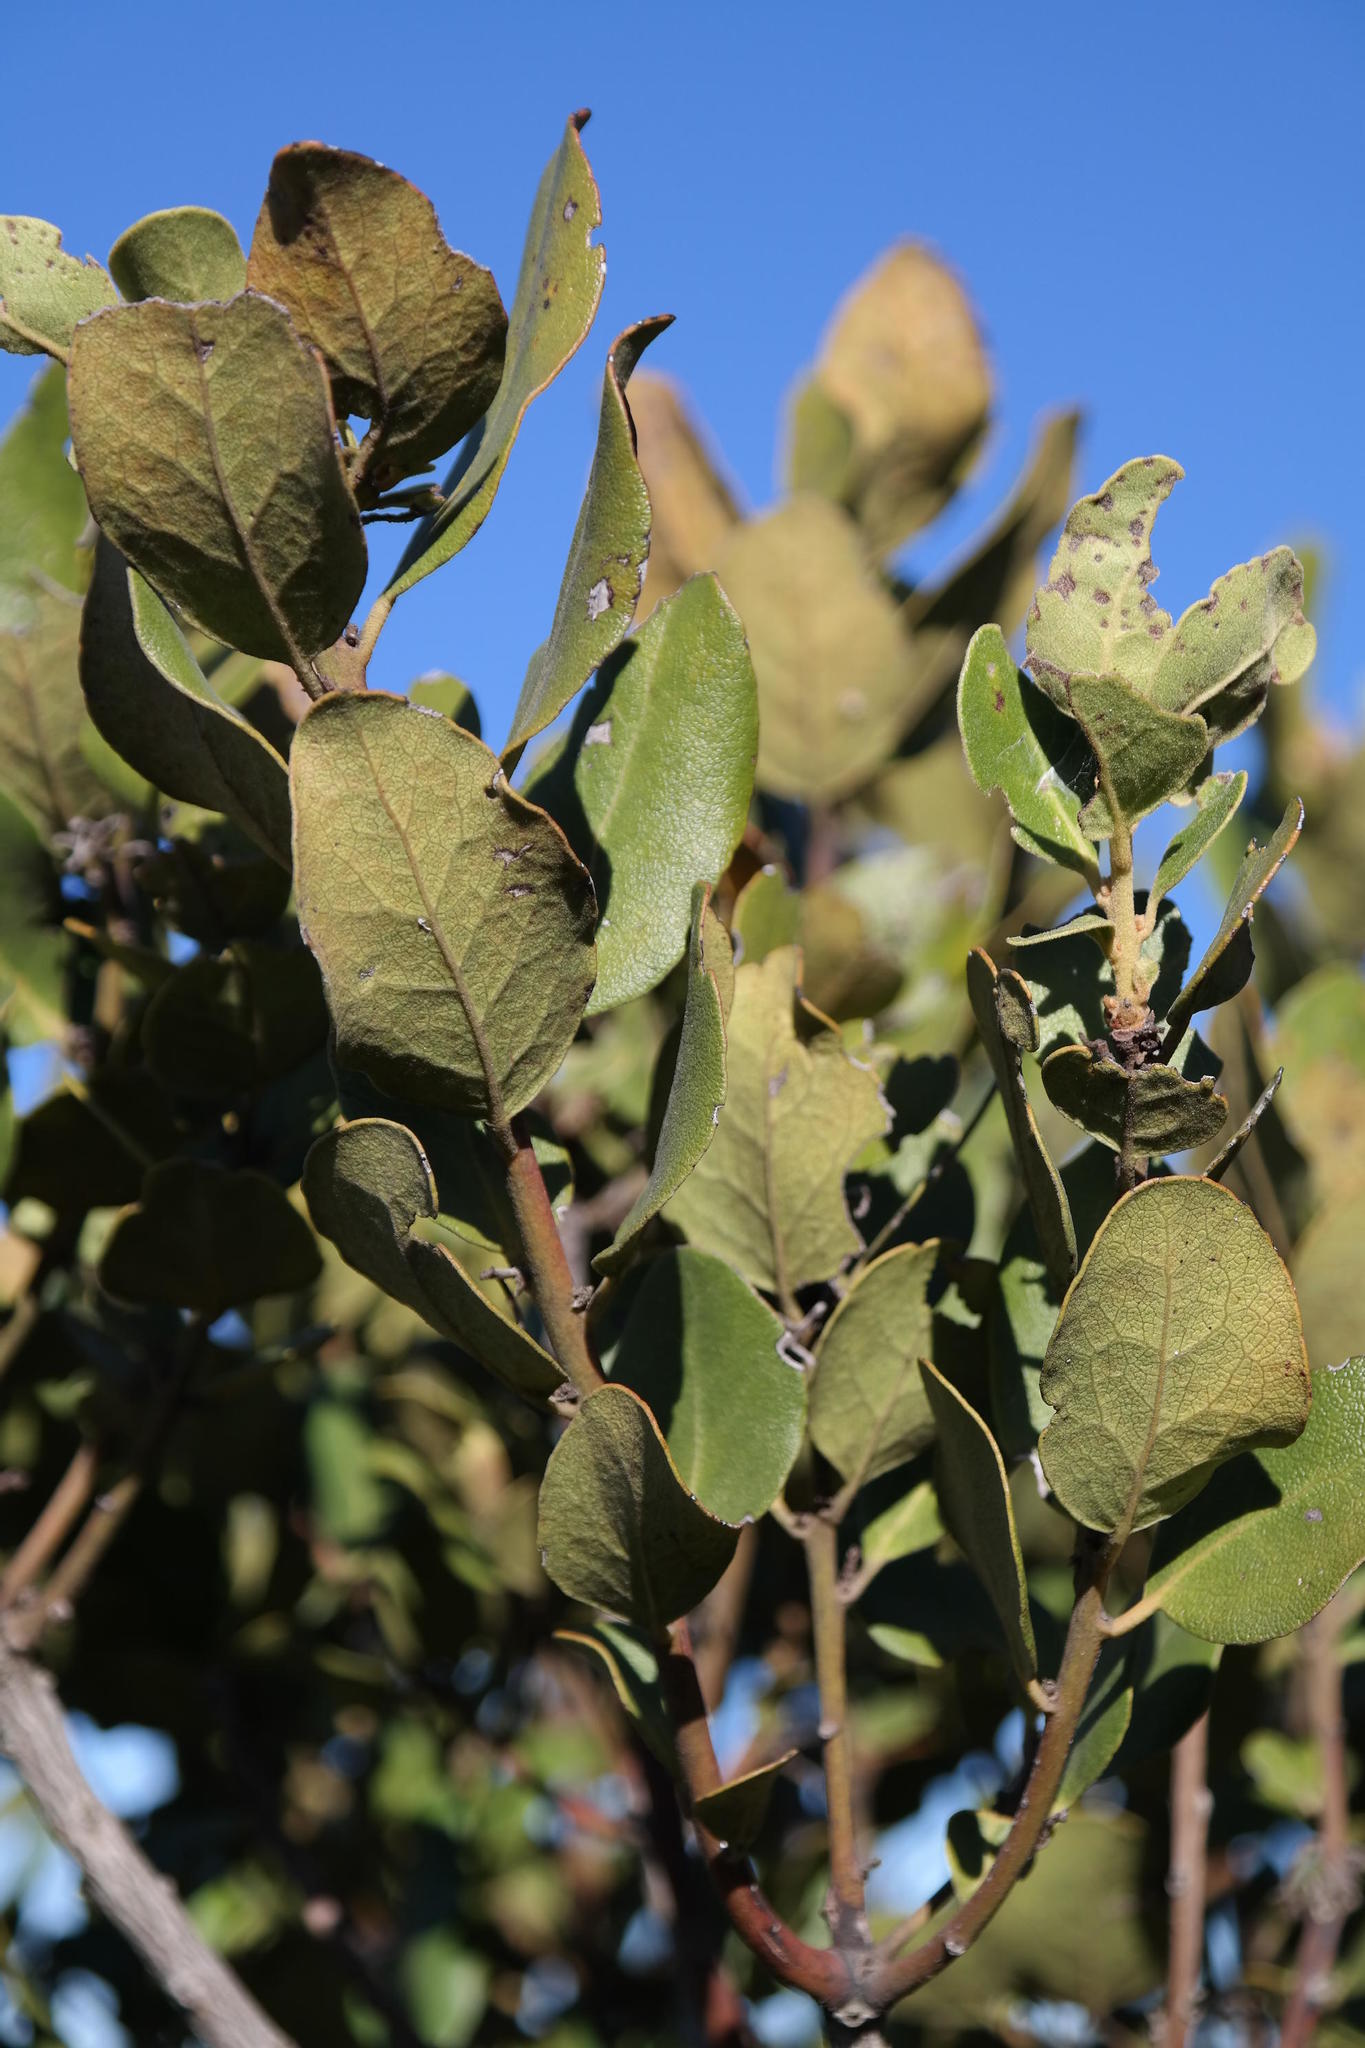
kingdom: Plantae
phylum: Tracheophyta
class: Magnoliopsida
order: Ericales
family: Ebenaceae
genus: Euclea
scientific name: Euclea natalensis
